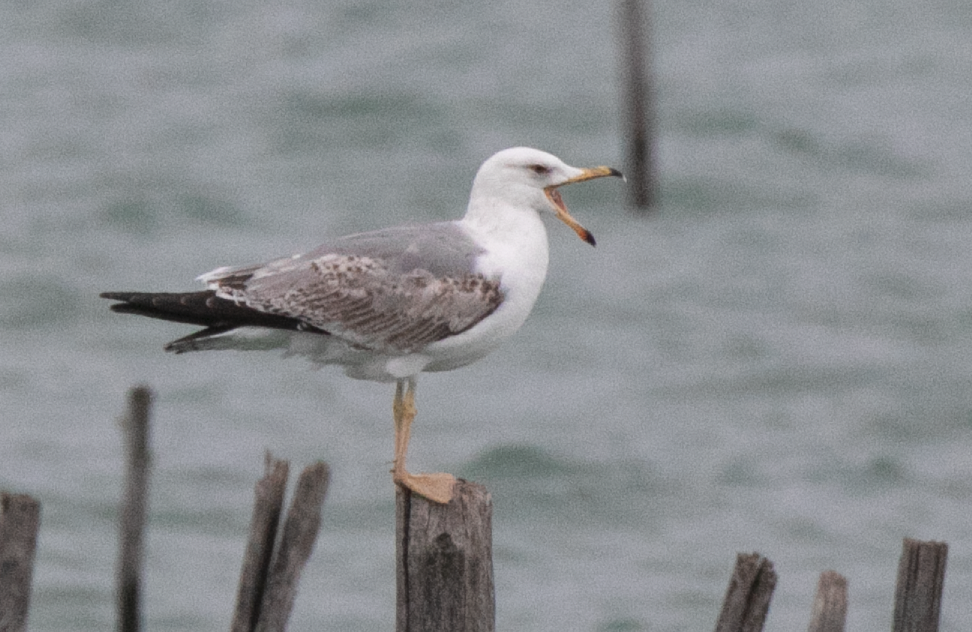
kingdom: Animalia
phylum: Chordata
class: Aves
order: Charadriiformes
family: Laridae
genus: Larus
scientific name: Larus michahellis
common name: Yellow-legged gull
